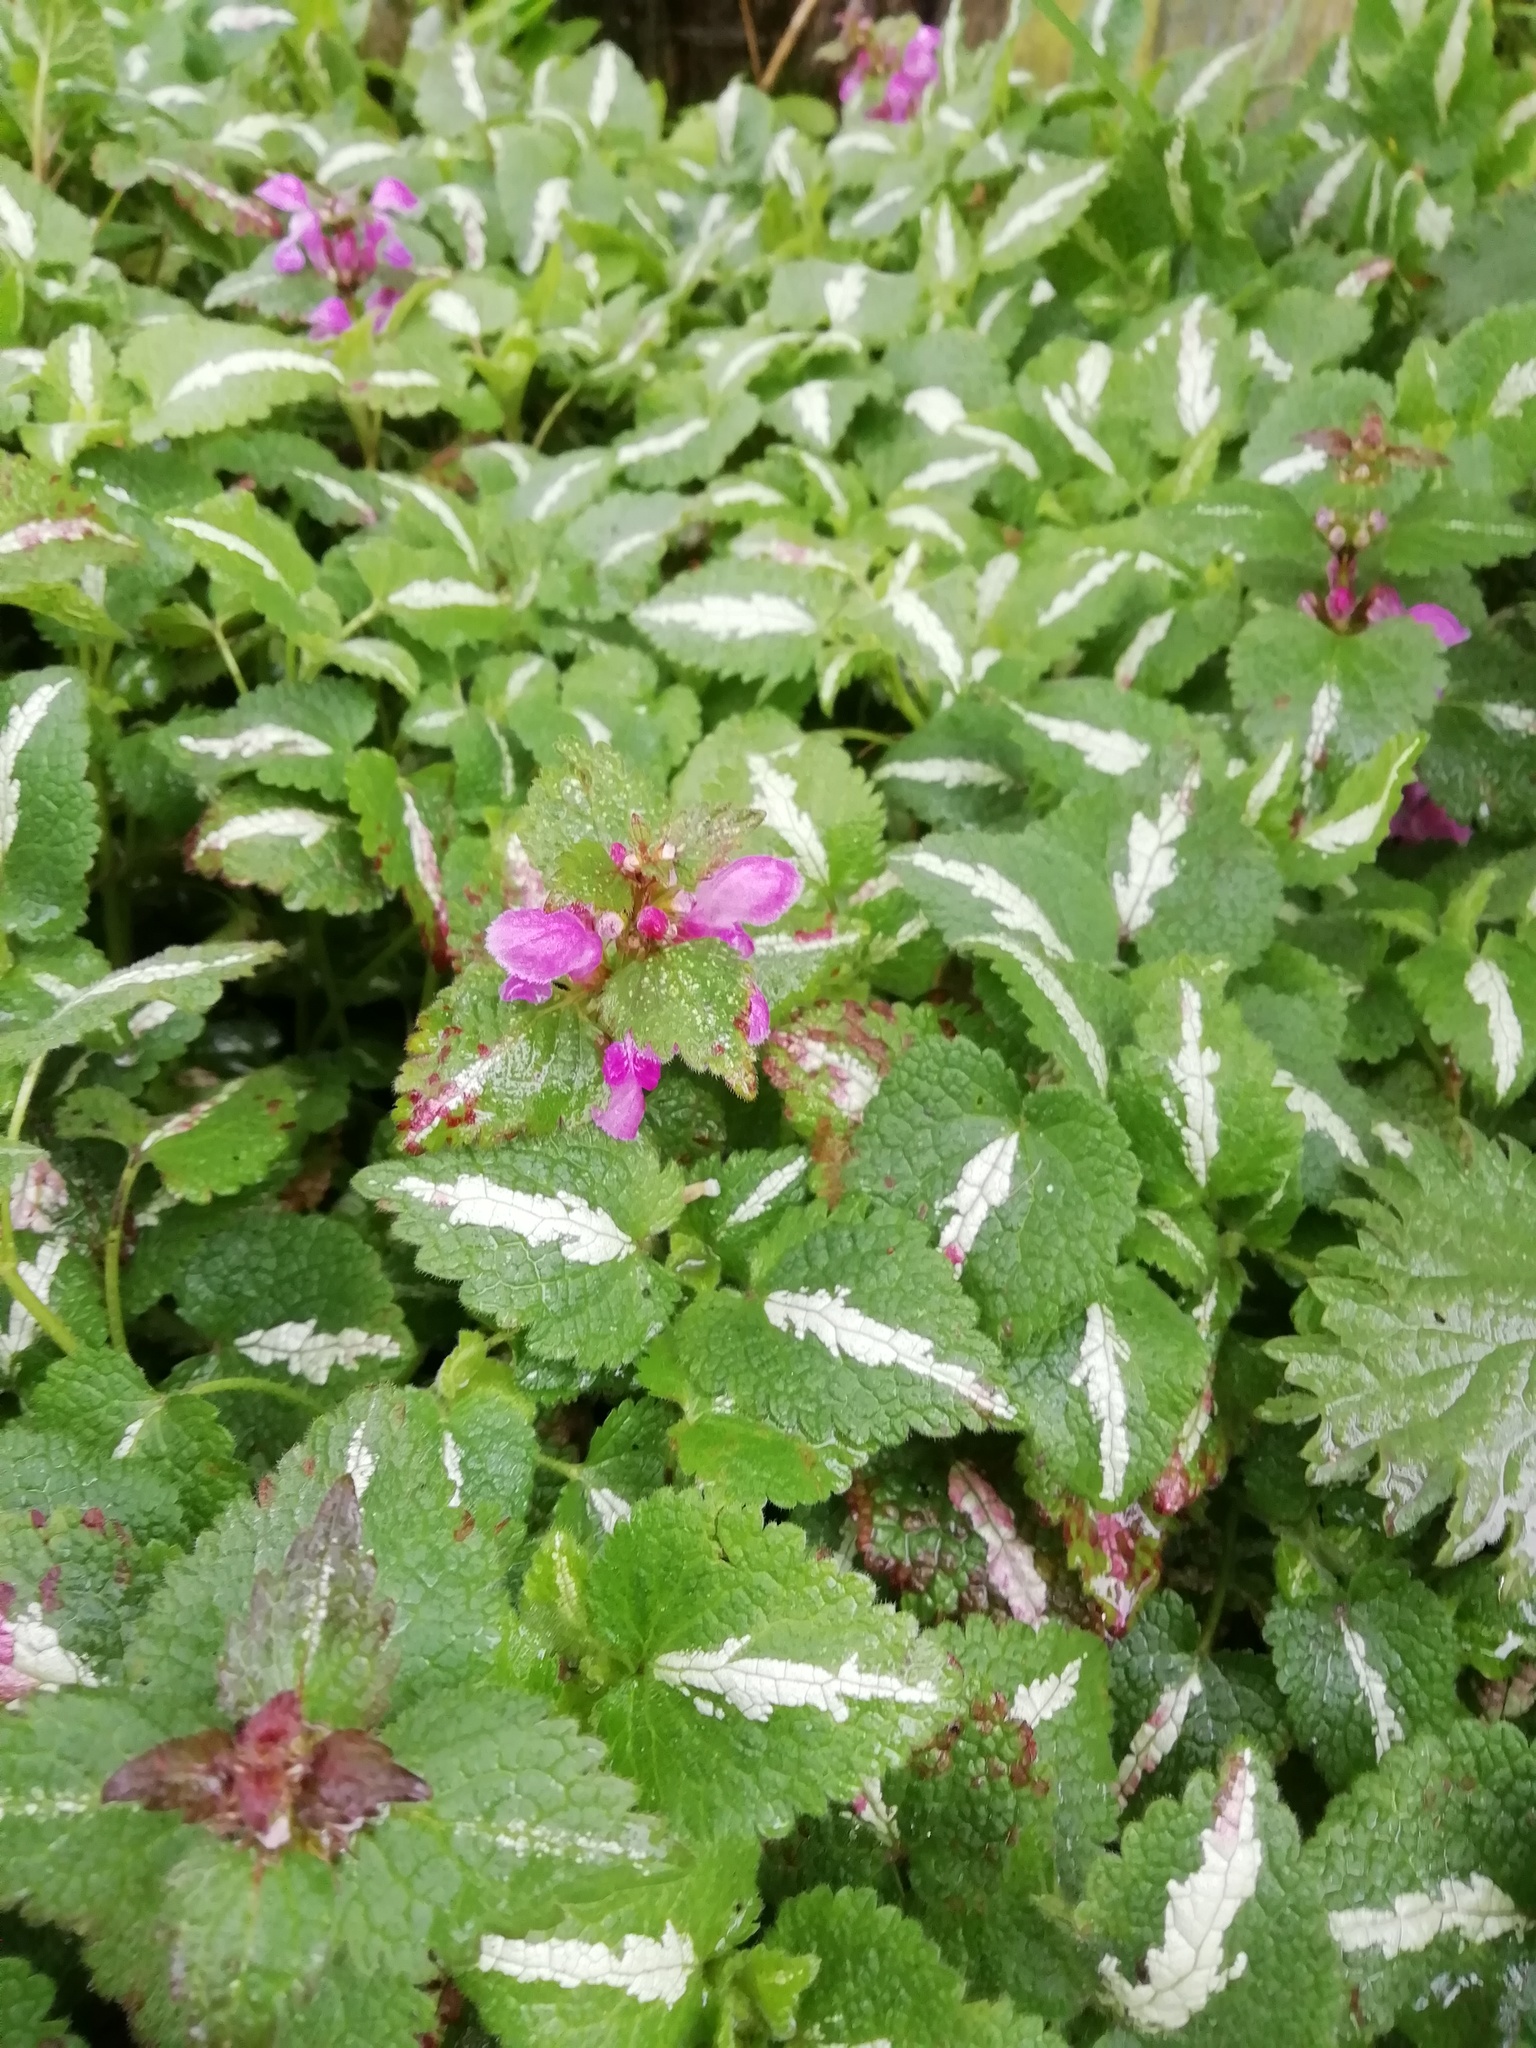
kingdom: Plantae
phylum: Tracheophyta
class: Magnoliopsida
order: Lamiales
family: Lamiaceae
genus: Lamium
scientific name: Lamium maculatum
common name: Spotted dead-nettle
